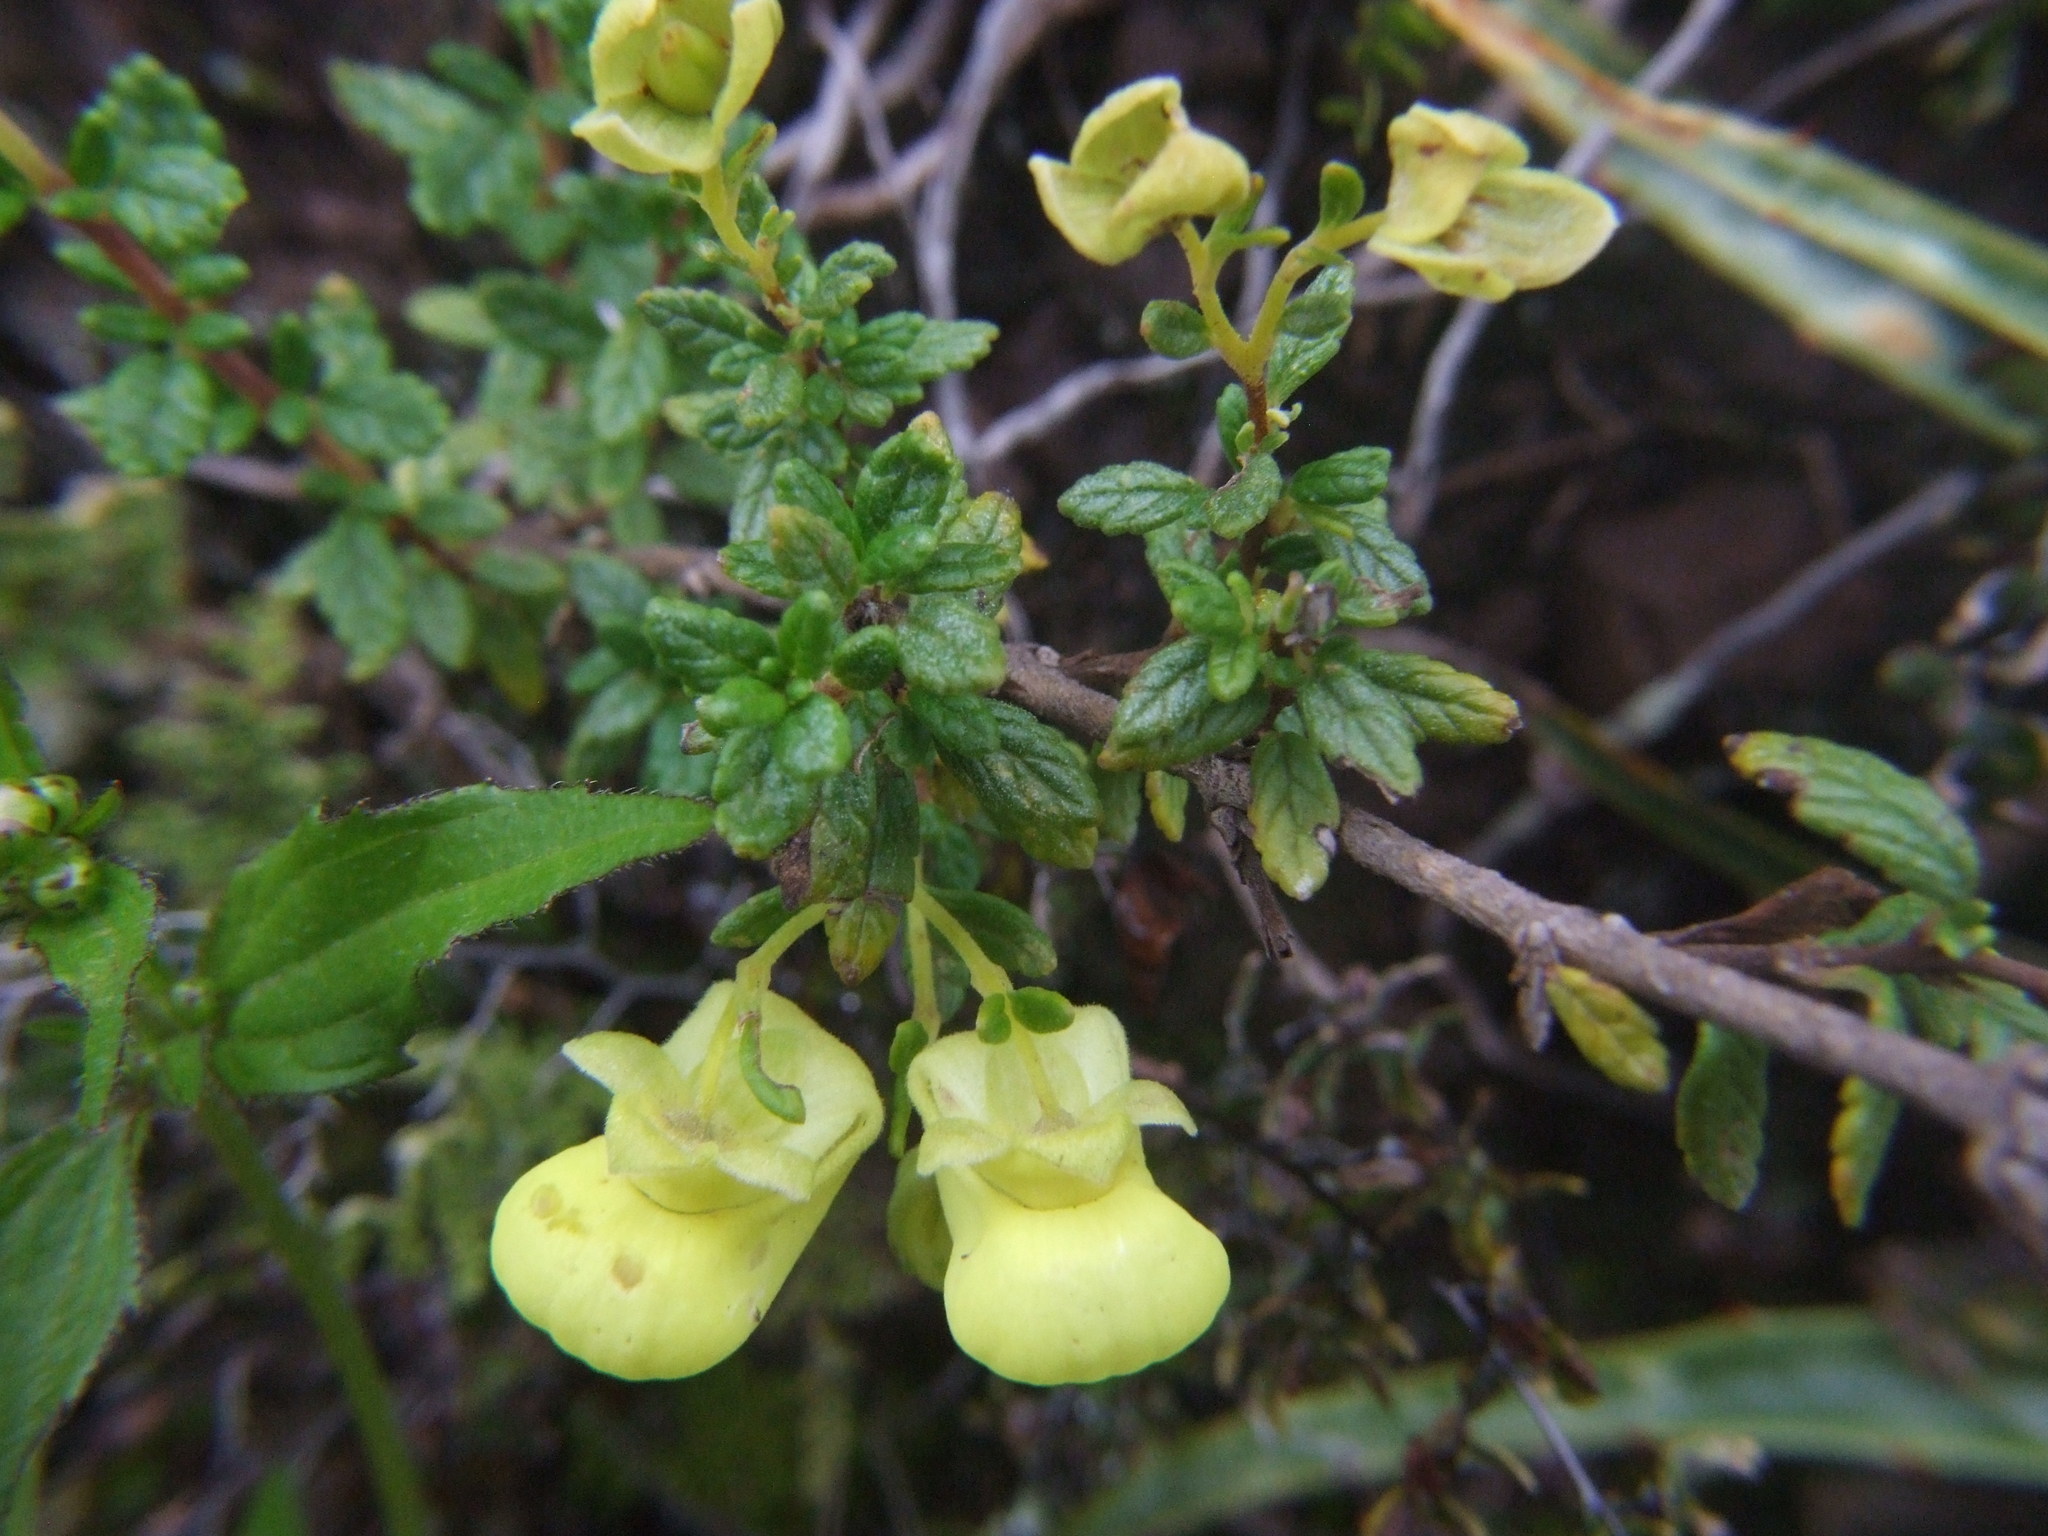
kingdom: Plantae
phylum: Tracheophyta
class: Magnoliopsida
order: Lamiales
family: Calceolariaceae
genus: Calceolaria
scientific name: Calceolaria myriophylla
